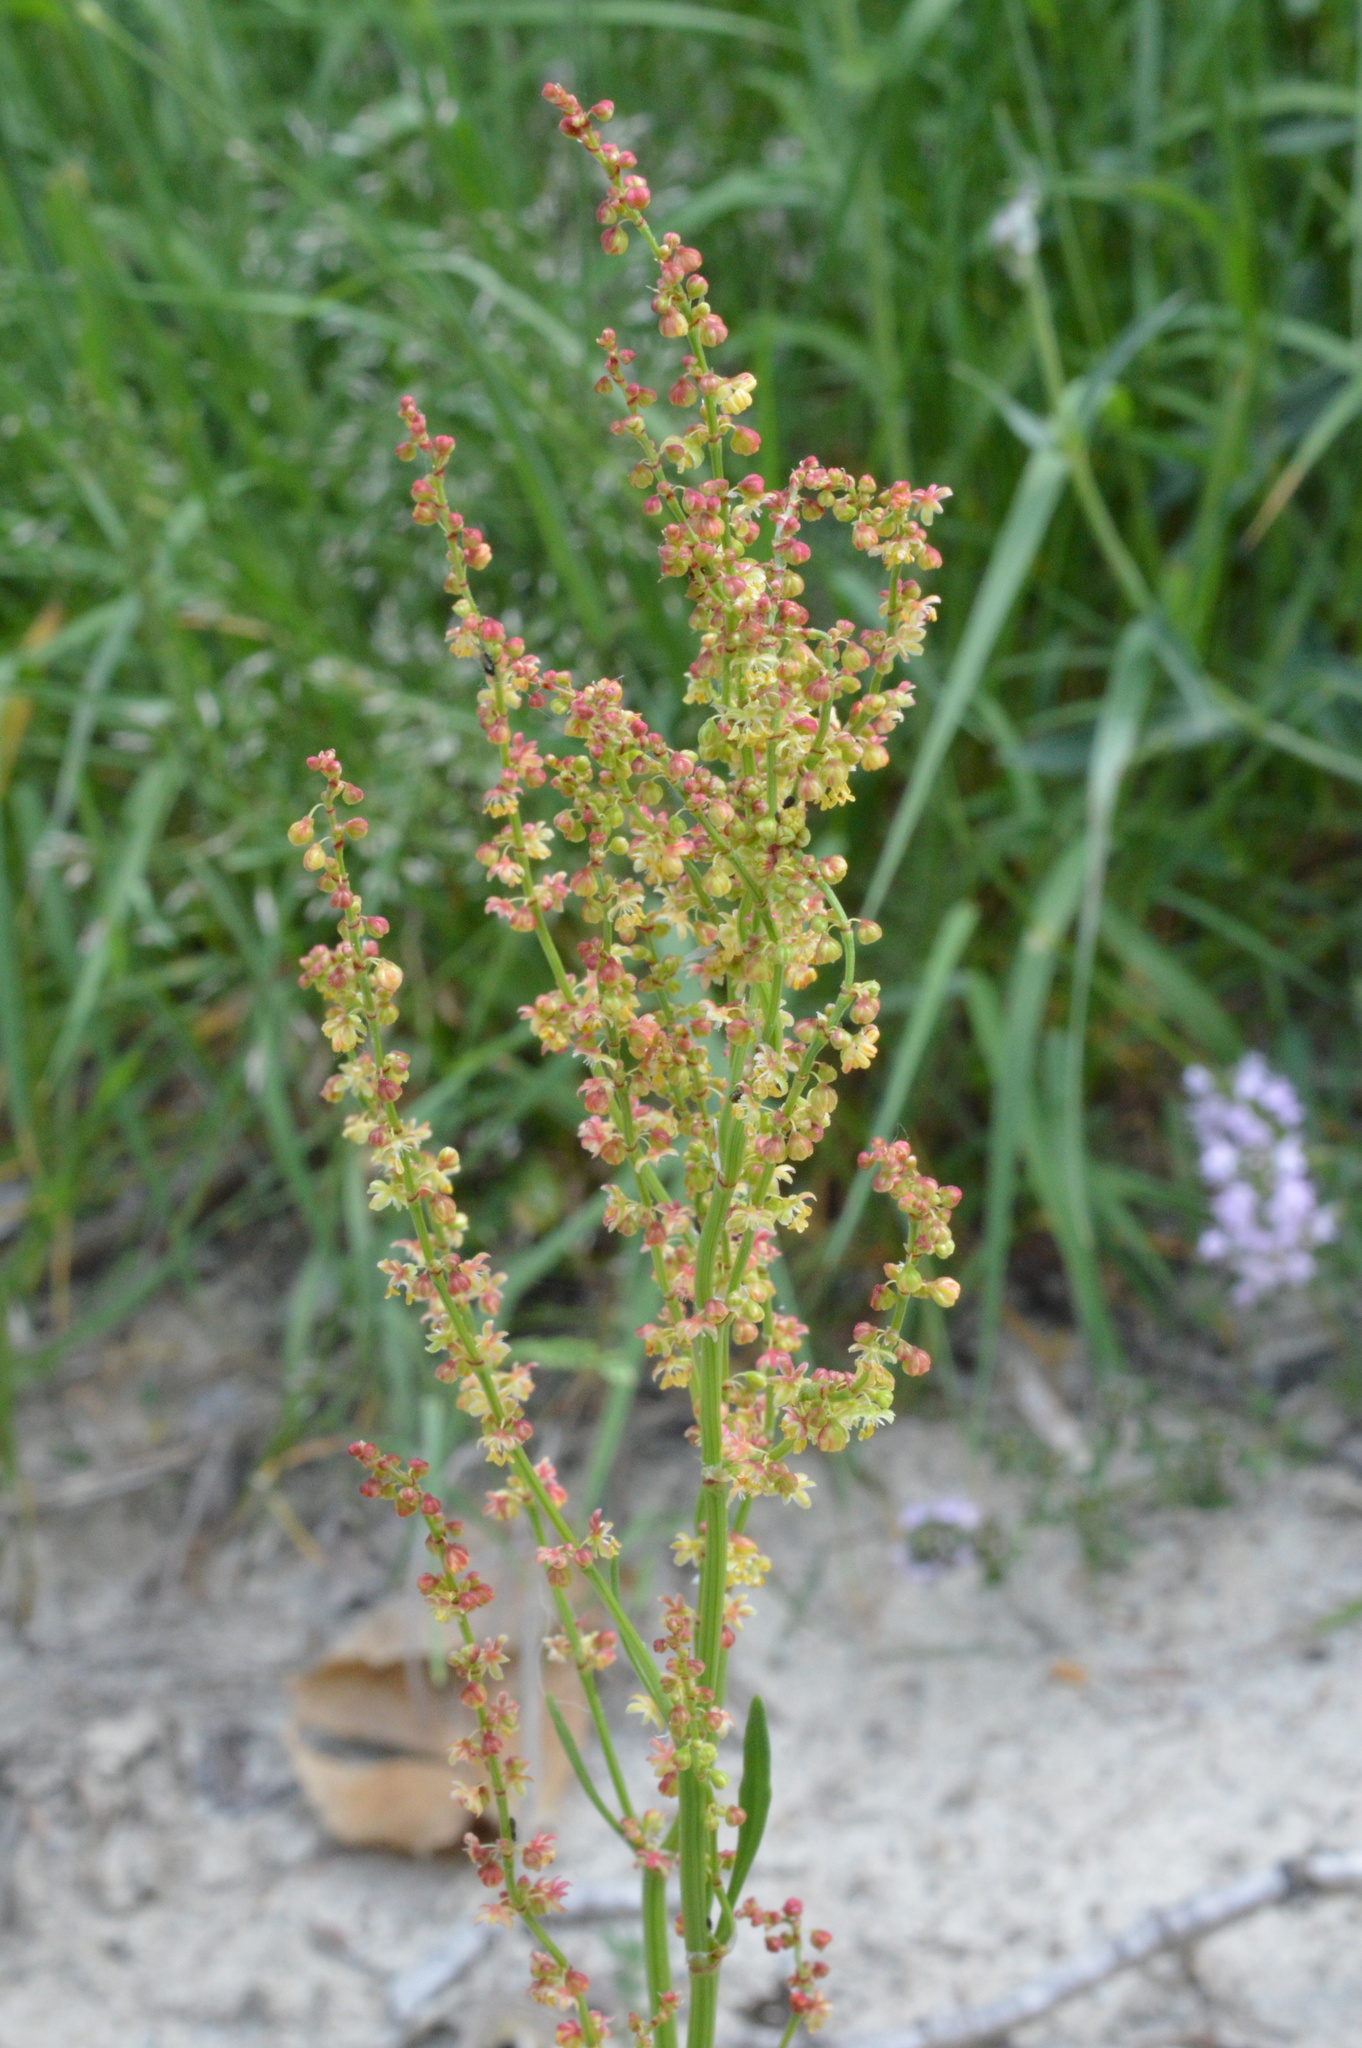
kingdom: Plantae
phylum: Tracheophyta
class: Magnoliopsida
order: Caryophyllales
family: Polygonaceae
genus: Rumex
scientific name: Rumex acetosella
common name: Common sheep sorrel
